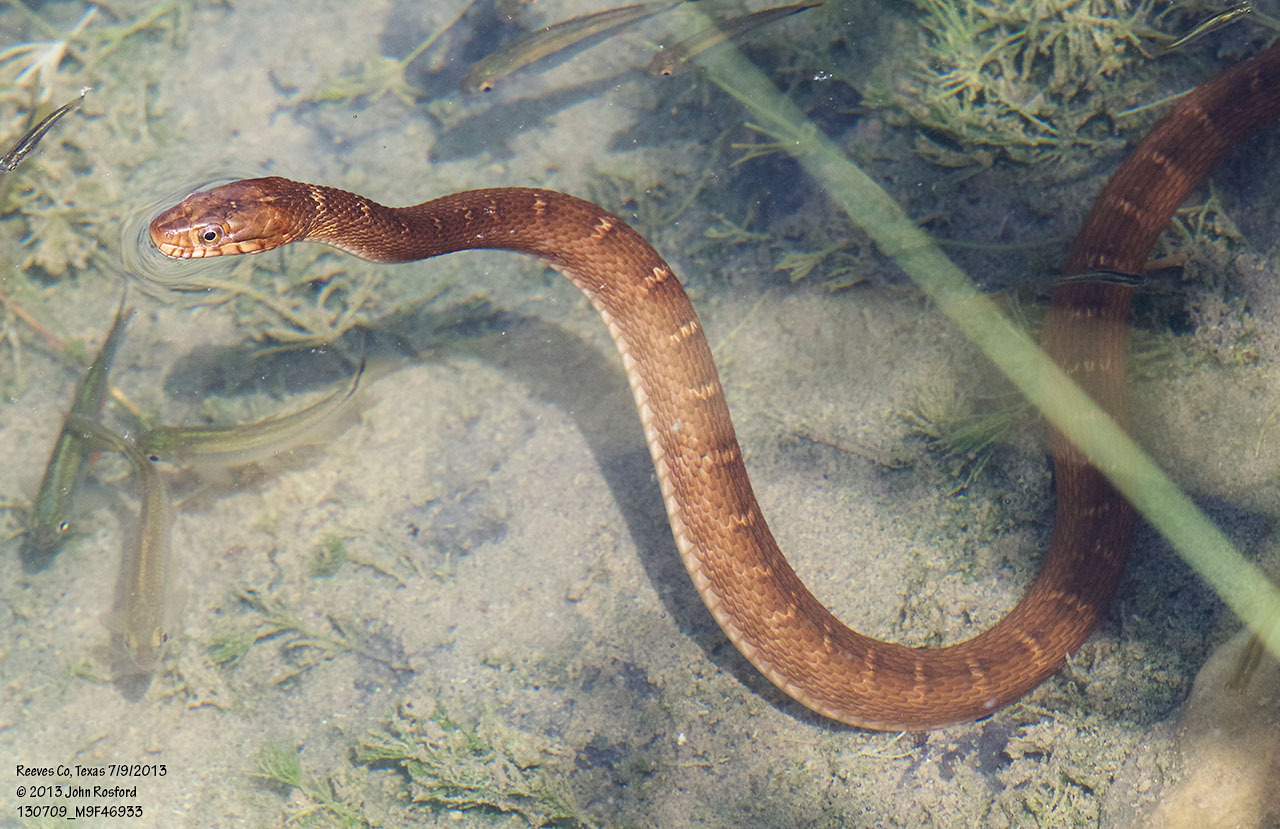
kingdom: Animalia
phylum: Chordata
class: Squamata
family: Colubridae
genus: Nerodia
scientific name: Nerodia erythrogaster
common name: Plainbelly water snake
